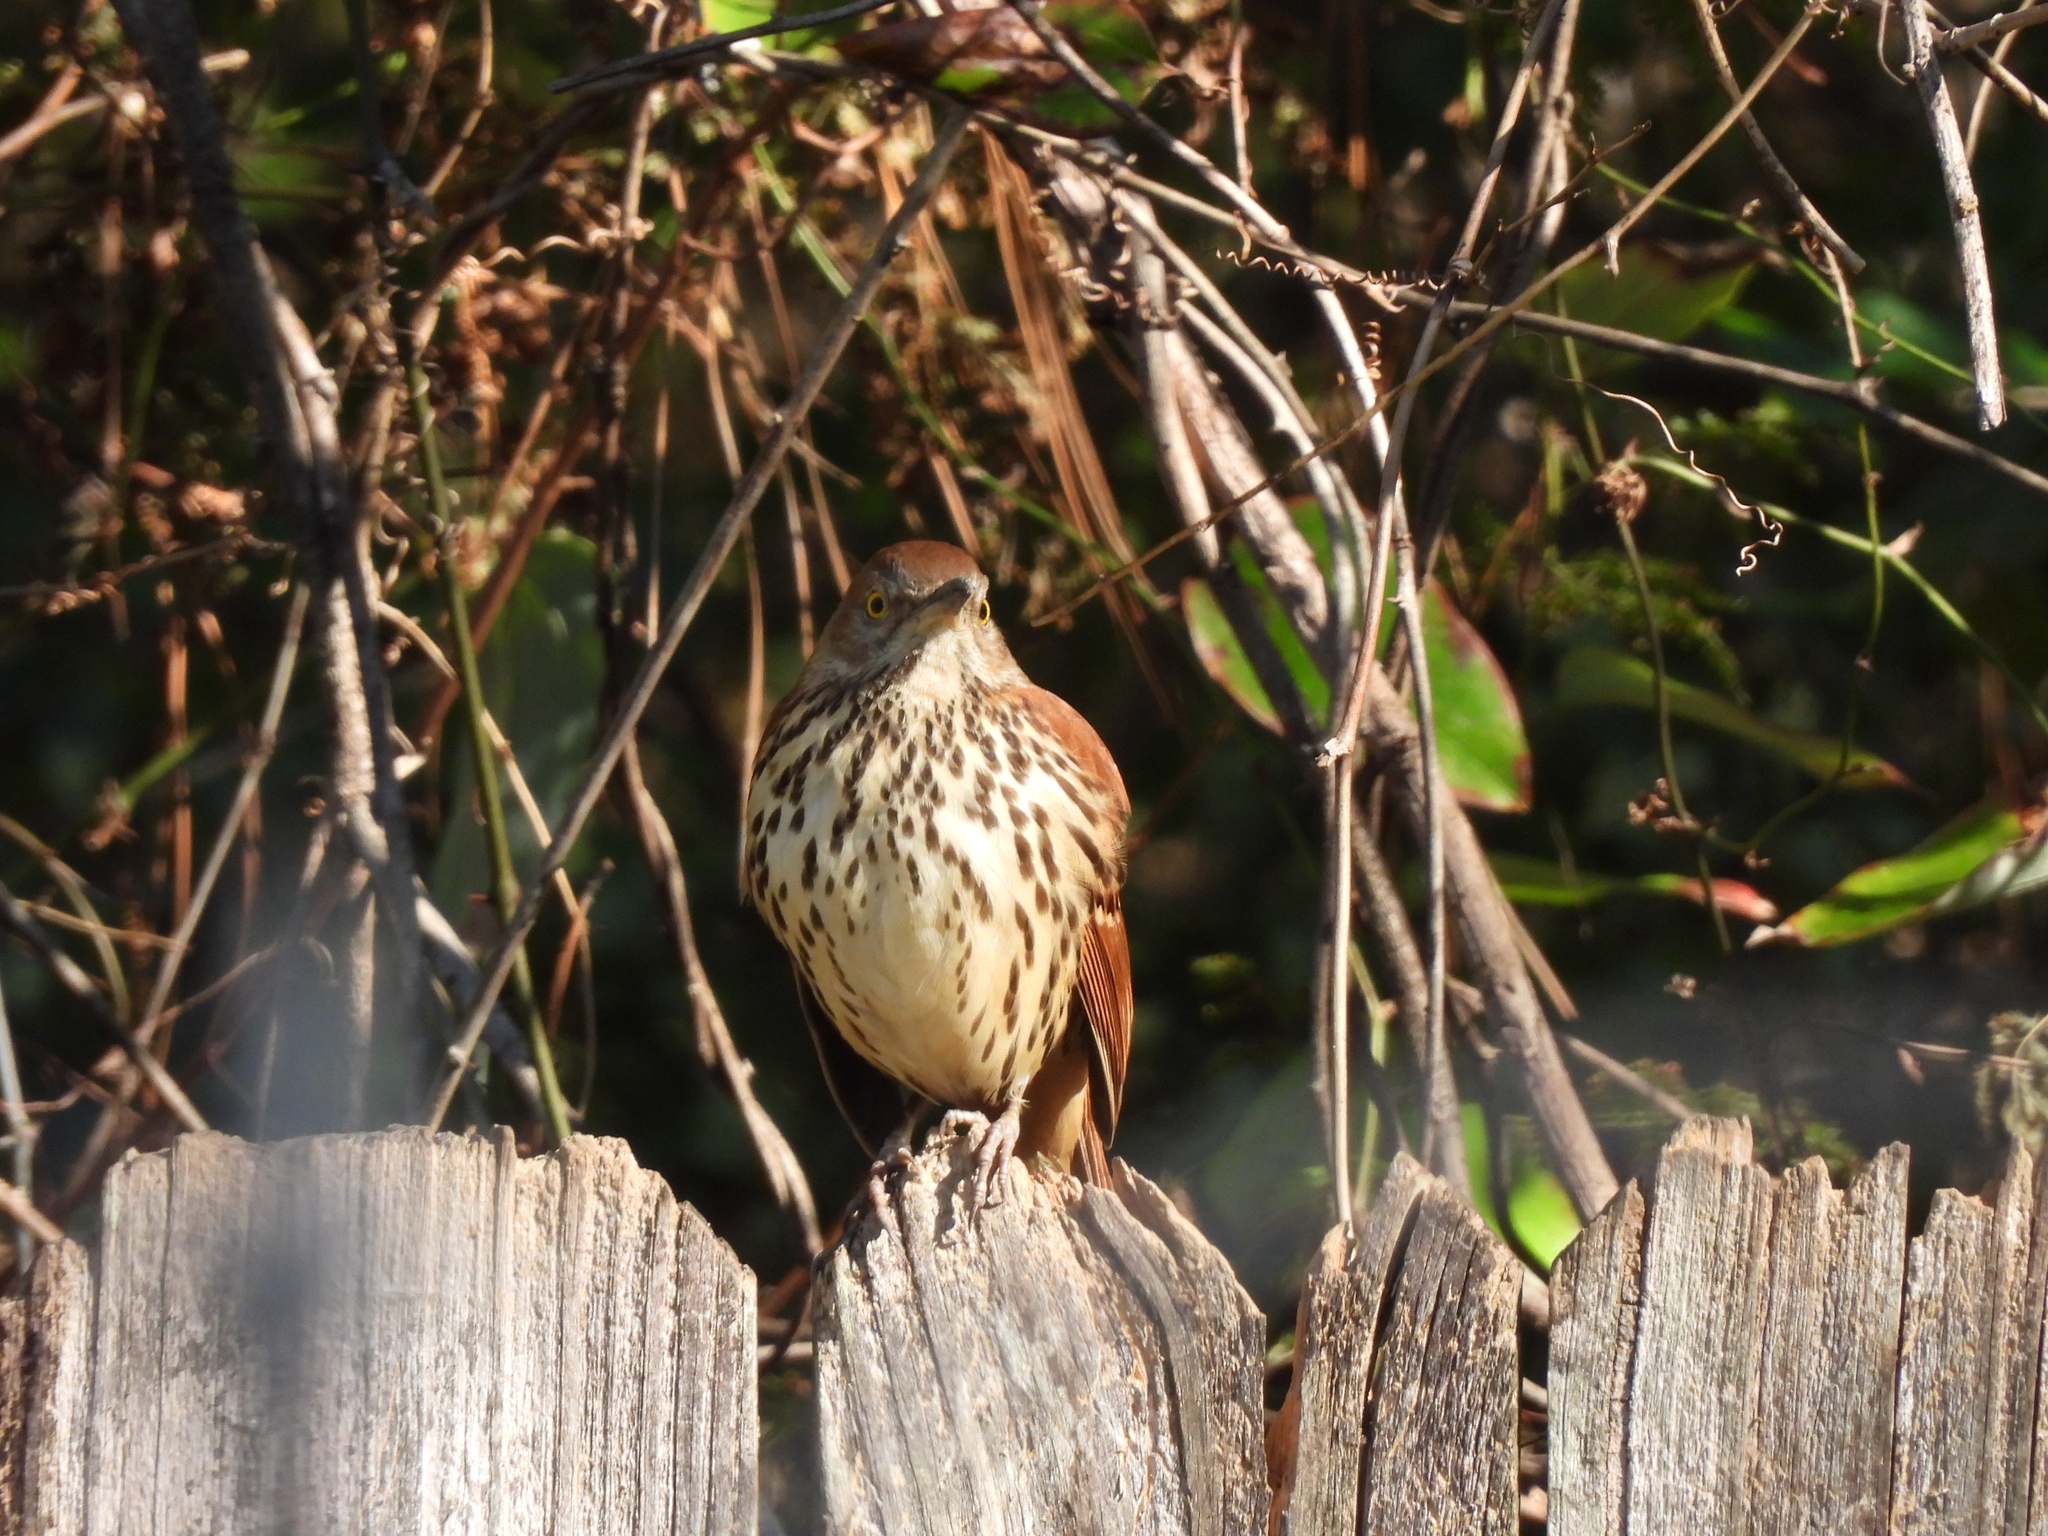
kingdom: Animalia
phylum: Chordata
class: Aves
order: Passeriformes
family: Mimidae
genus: Toxostoma
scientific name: Toxostoma rufum
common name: Brown thrasher
